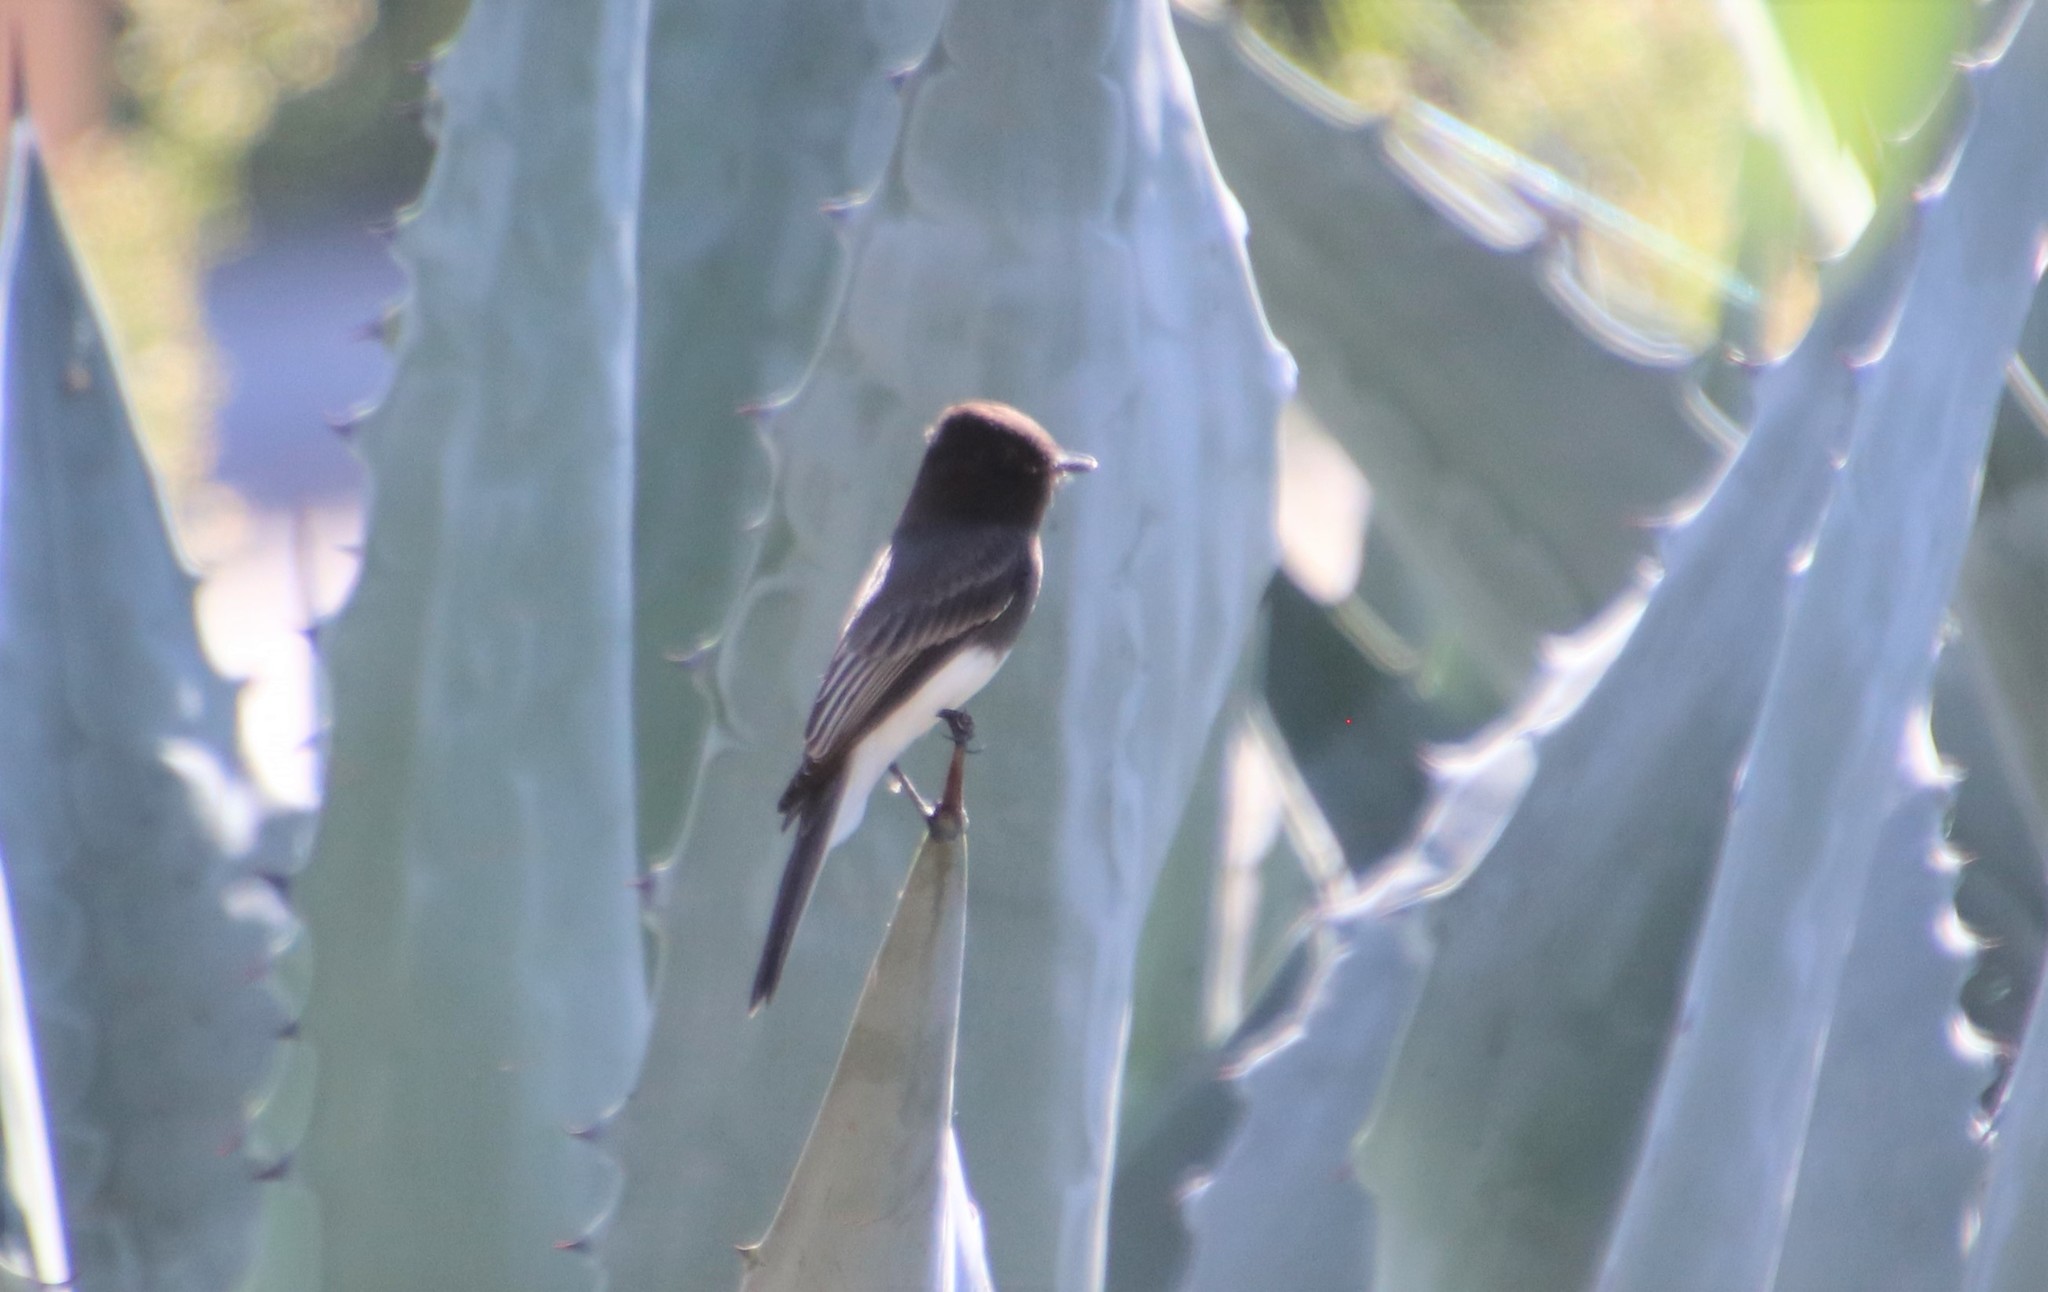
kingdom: Animalia
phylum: Chordata
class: Aves
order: Passeriformes
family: Tyrannidae
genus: Sayornis
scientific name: Sayornis nigricans
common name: Black phoebe
